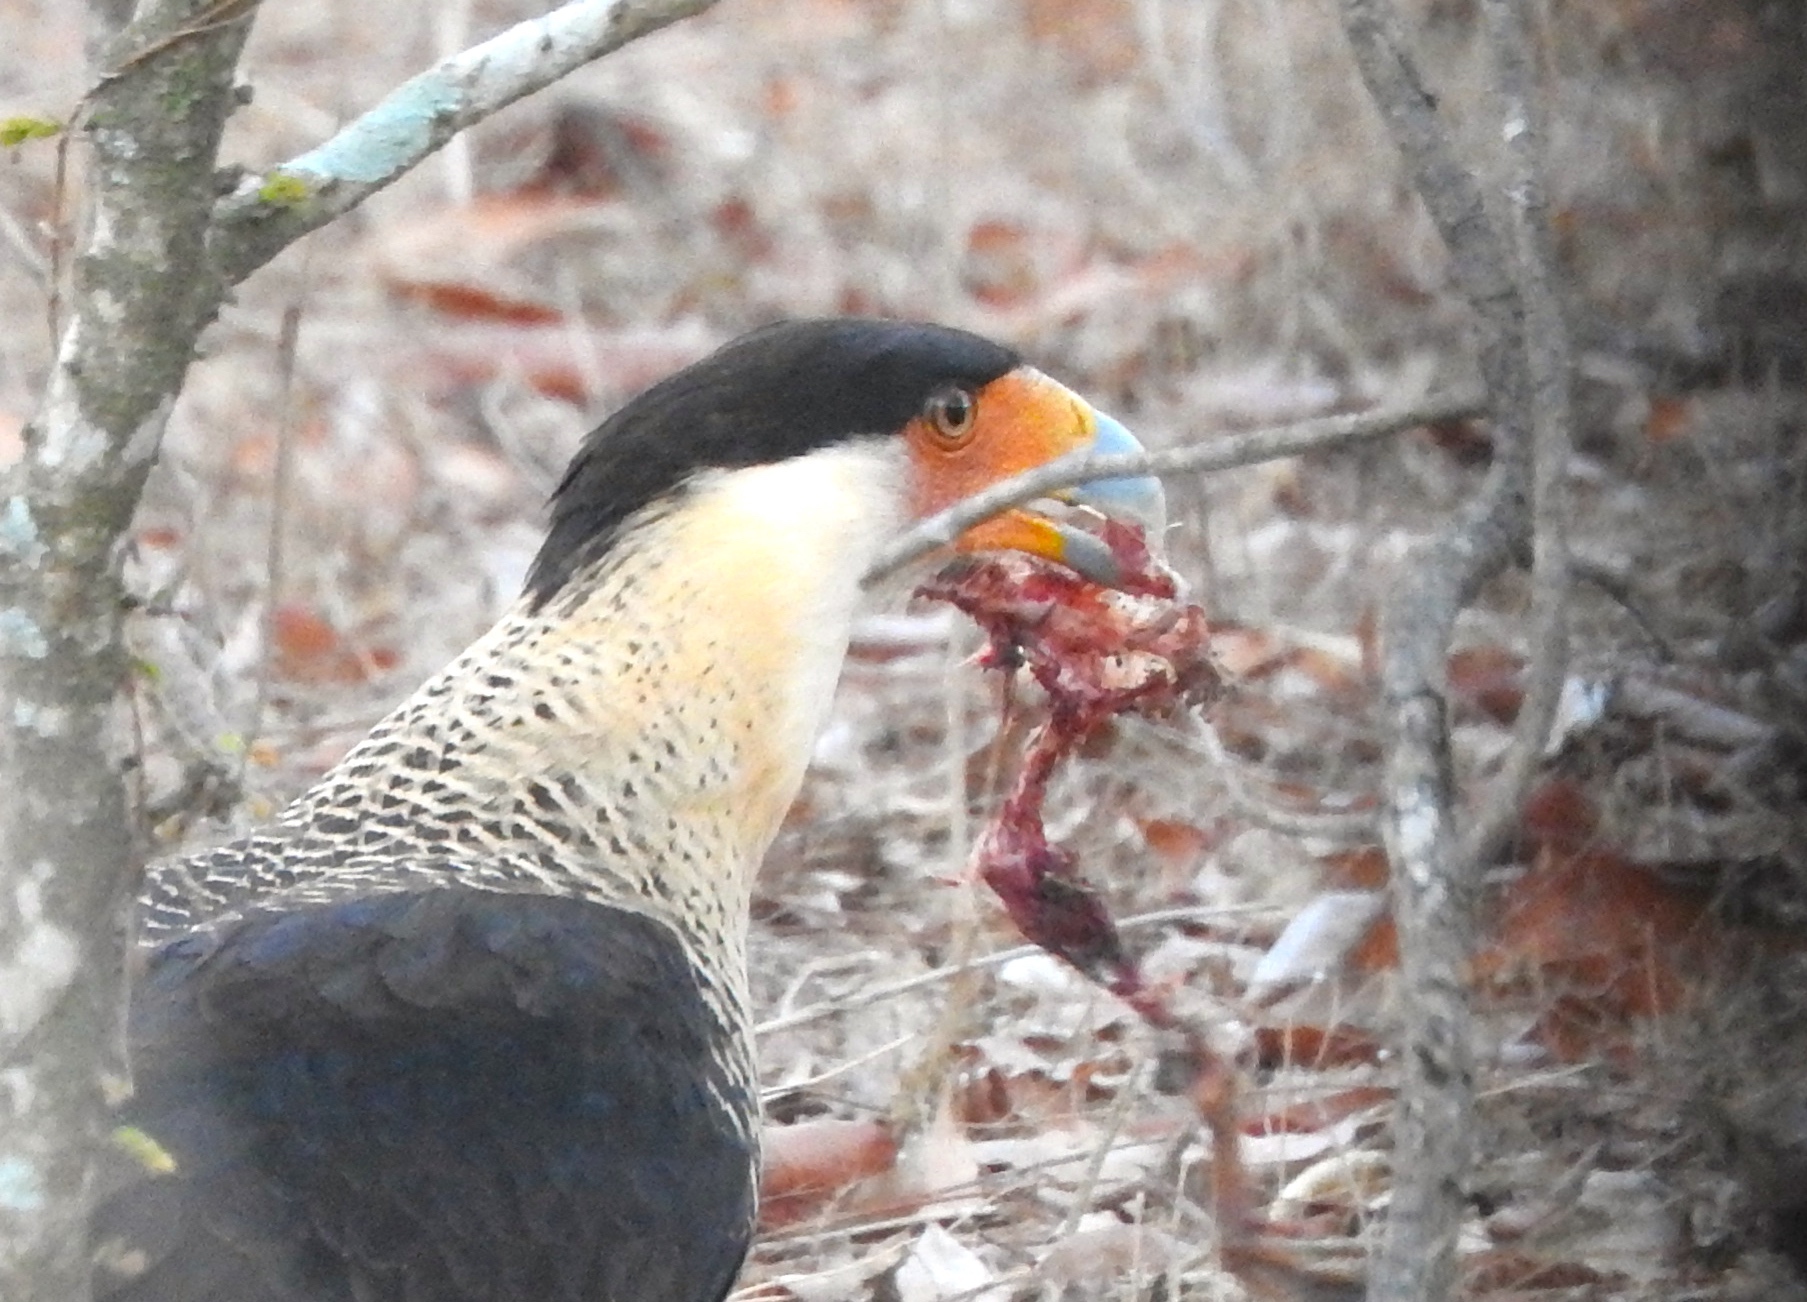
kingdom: Animalia
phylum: Chordata
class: Aves
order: Falconiformes
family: Falconidae
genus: Caracara
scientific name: Caracara plancus
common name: Southern caracara
